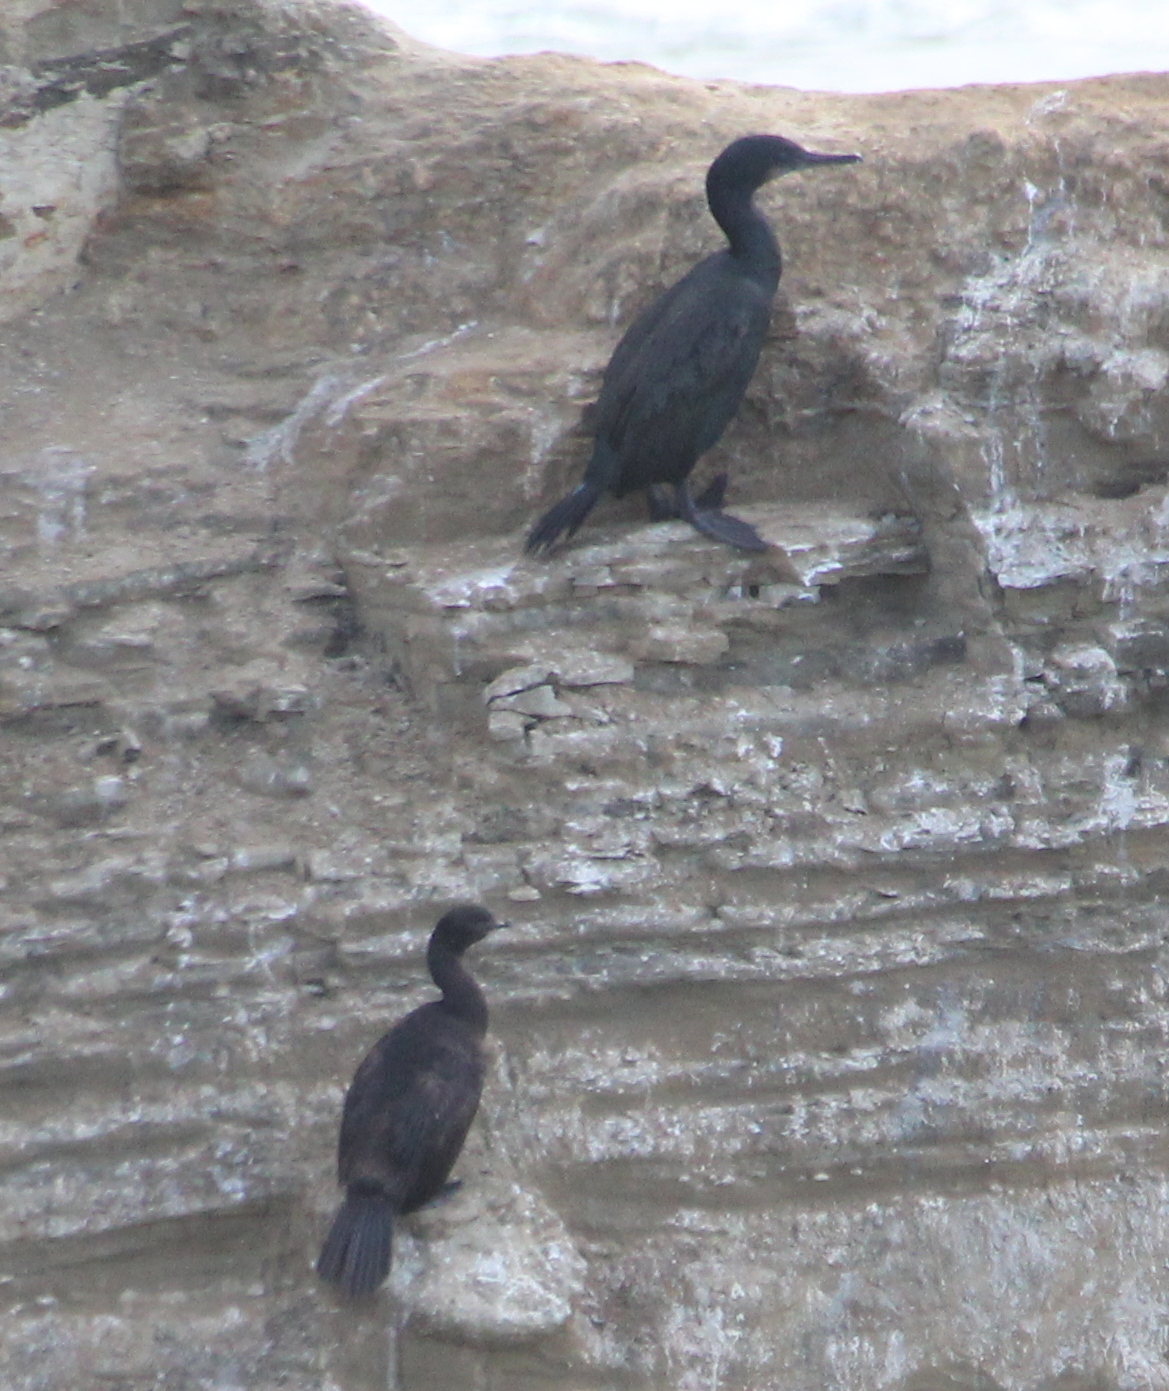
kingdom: Animalia
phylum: Chordata
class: Aves
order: Suliformes
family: Phalacrocoracidae
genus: Phalacrocorax
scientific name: Phalacrocorax pelagicus
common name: Pelagic cormorant
